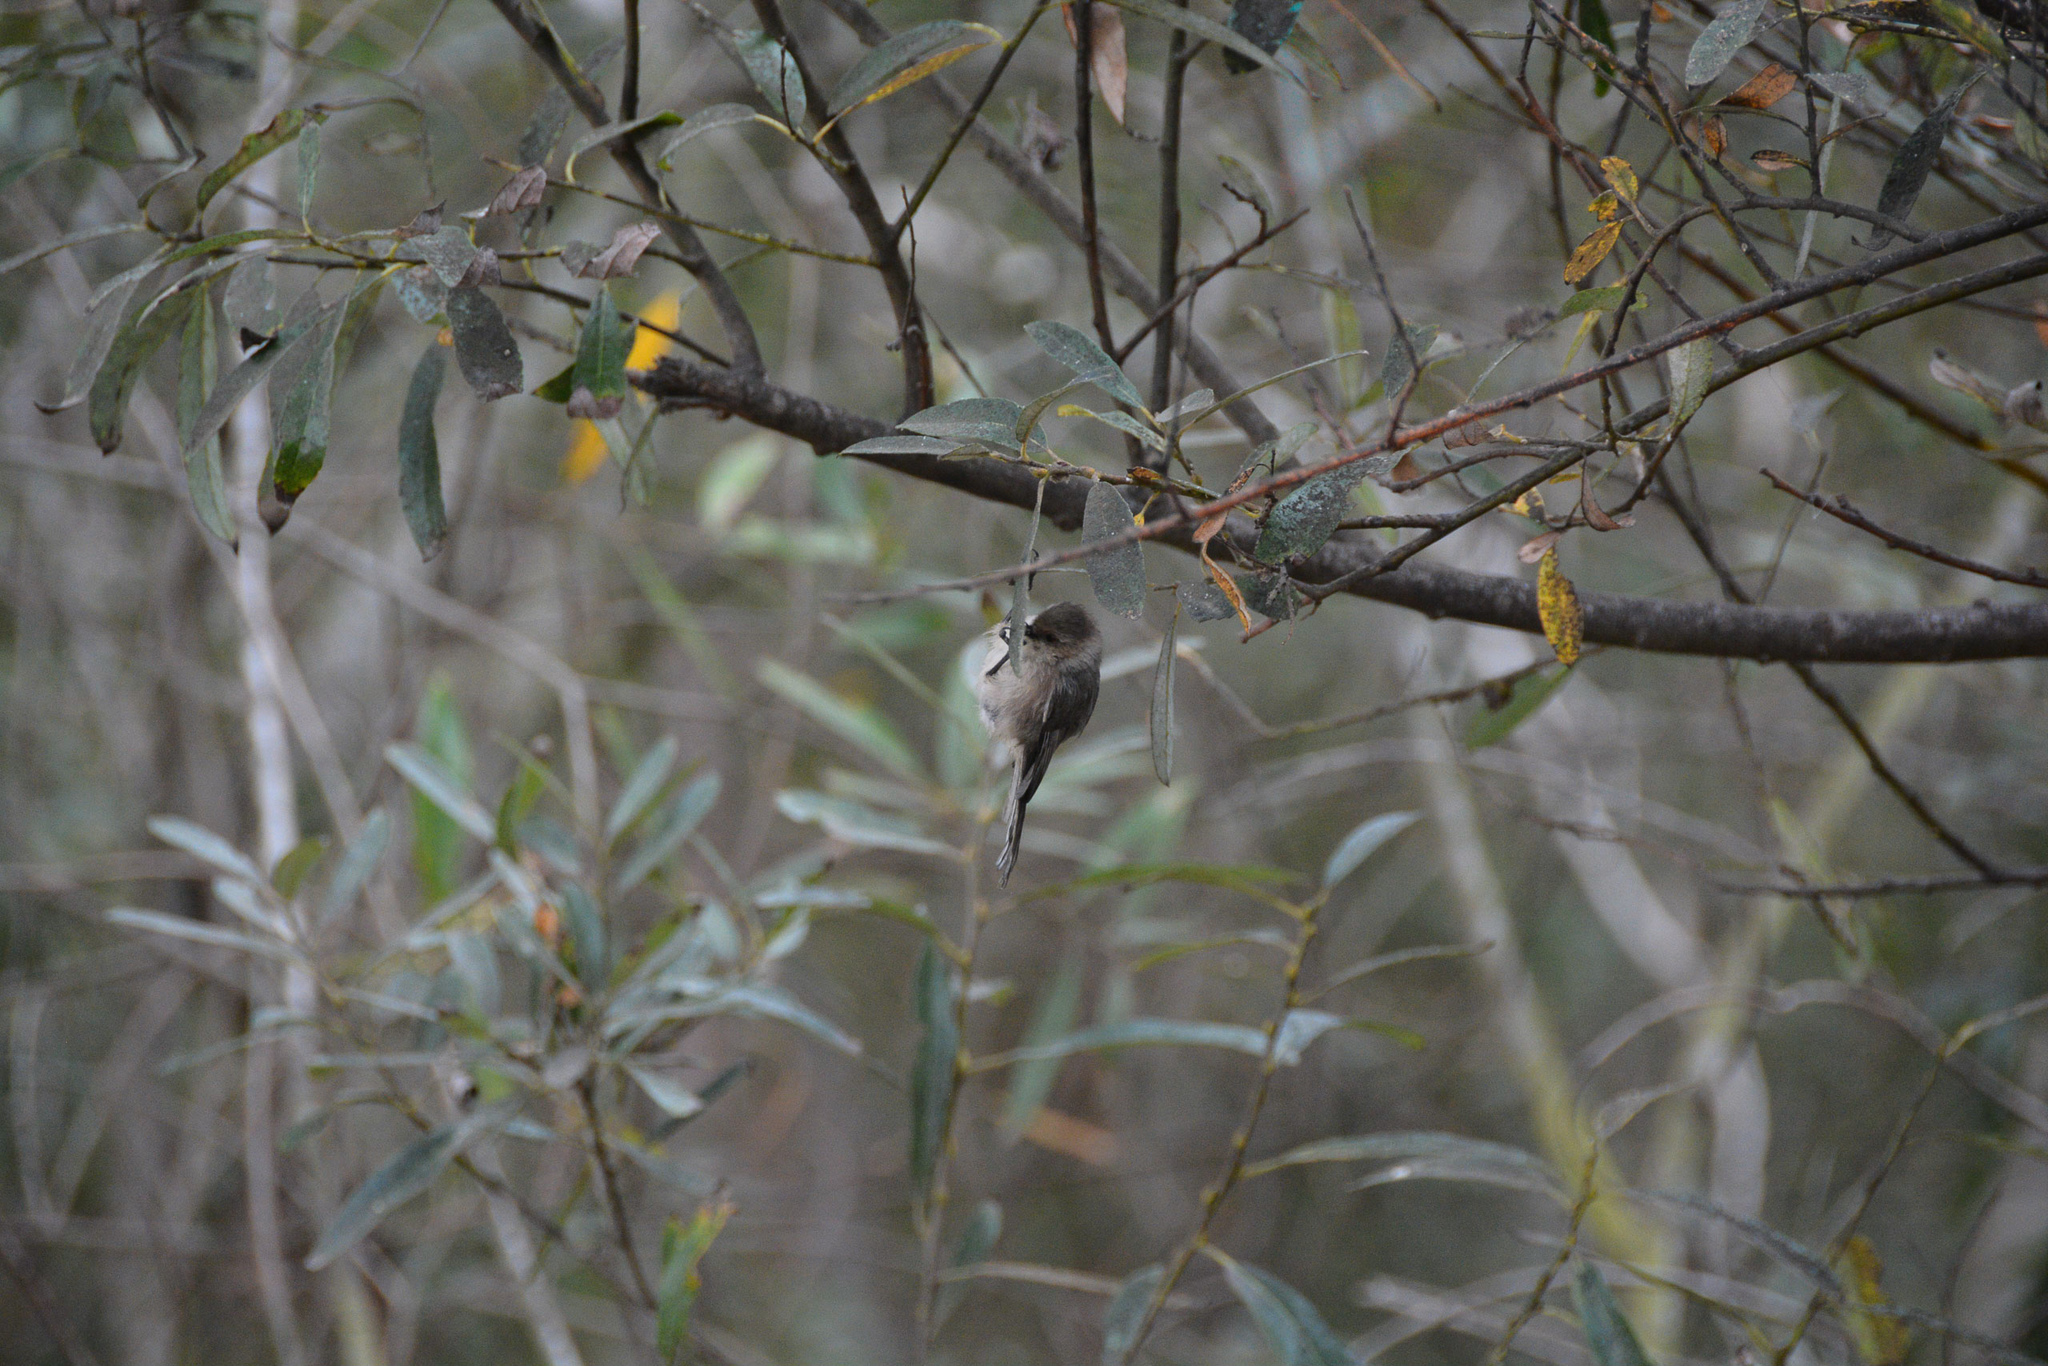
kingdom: Animalia
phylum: Chordata
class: Aves
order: Passeriformes
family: Aegithalidae
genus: Psaltriparus
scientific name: Psaltriparus minimus
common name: American bushtit
